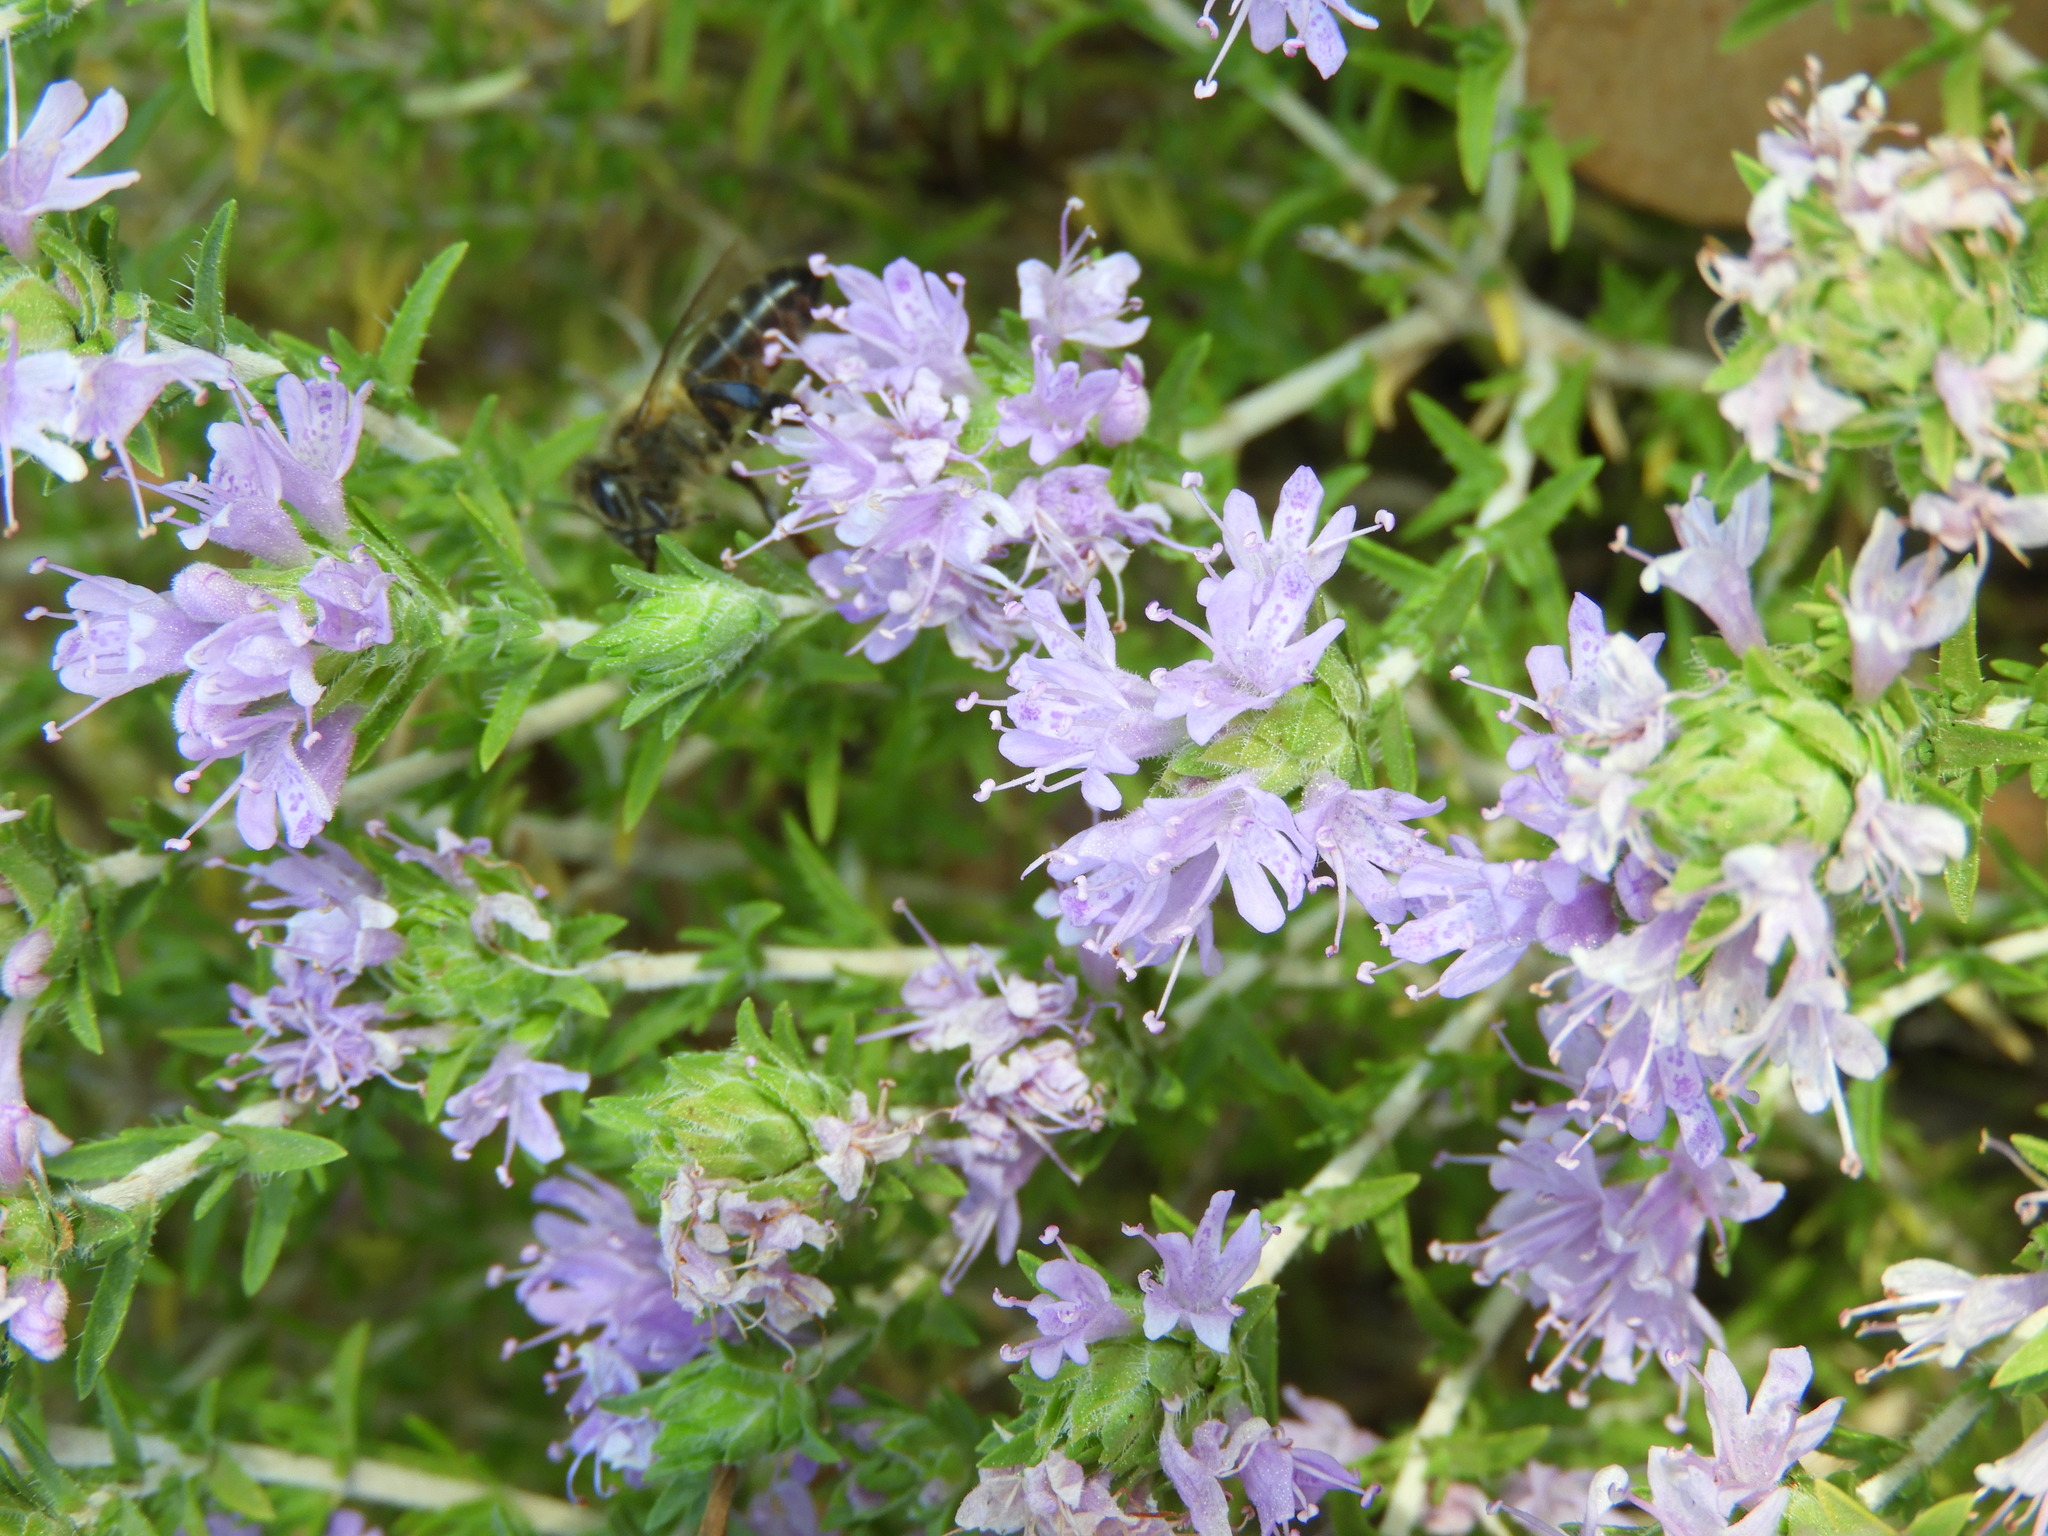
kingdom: Animalia
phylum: Arthropoda
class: Insecta
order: Hymenoptera
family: Apidae
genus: Apis
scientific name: Apis mellifera
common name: Honey bee
